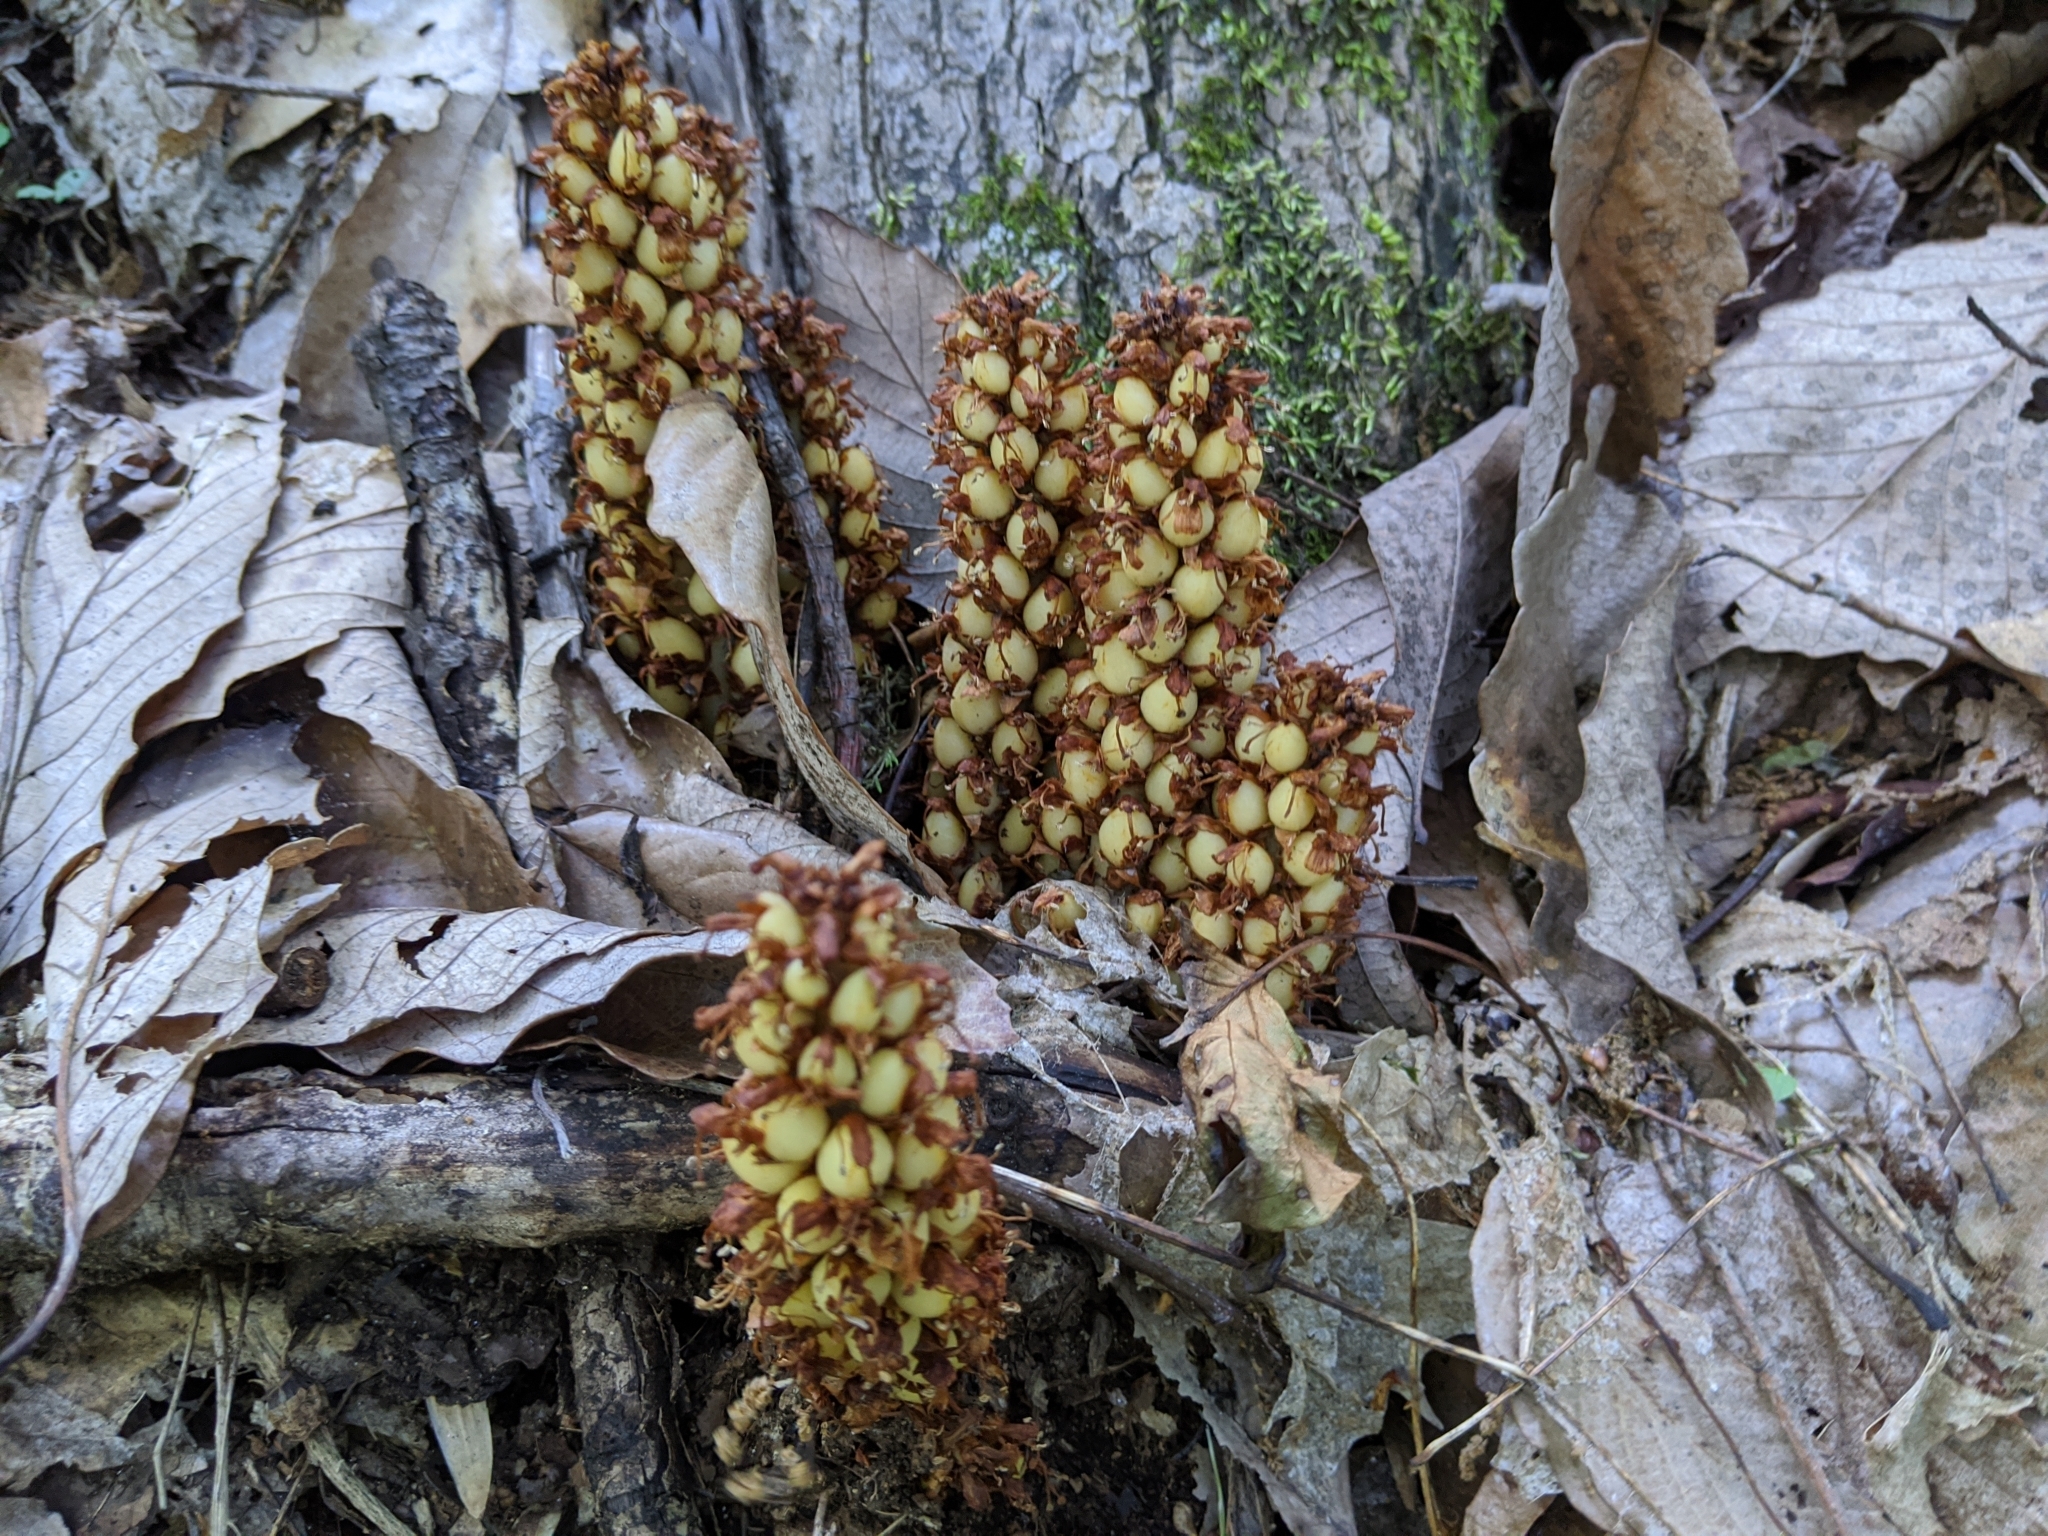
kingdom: Plantae
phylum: Tracheophyta
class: Magnoliopsida
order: Lamiales
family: Orobanchaceae
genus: Conopholis
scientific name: Conopholis americana
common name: American cancer-root
